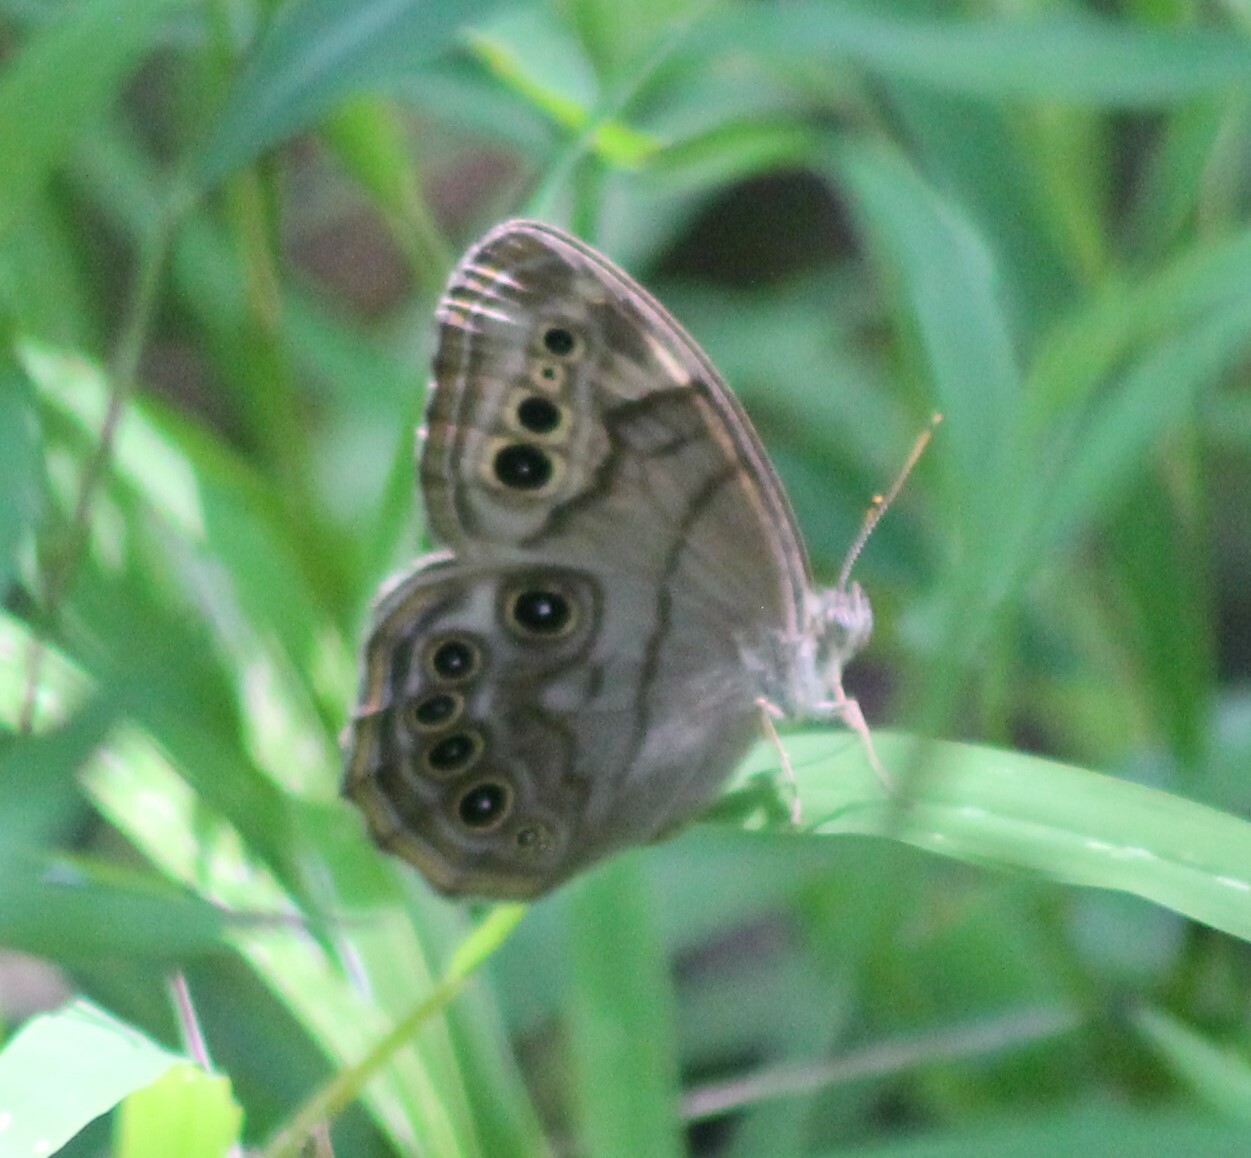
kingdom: Animalia
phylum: Arthropoda
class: Insecta
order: Lepidoptera
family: Nymphalidae
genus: Lethe
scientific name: Lethe anthedon
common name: Northern pearly-eye
